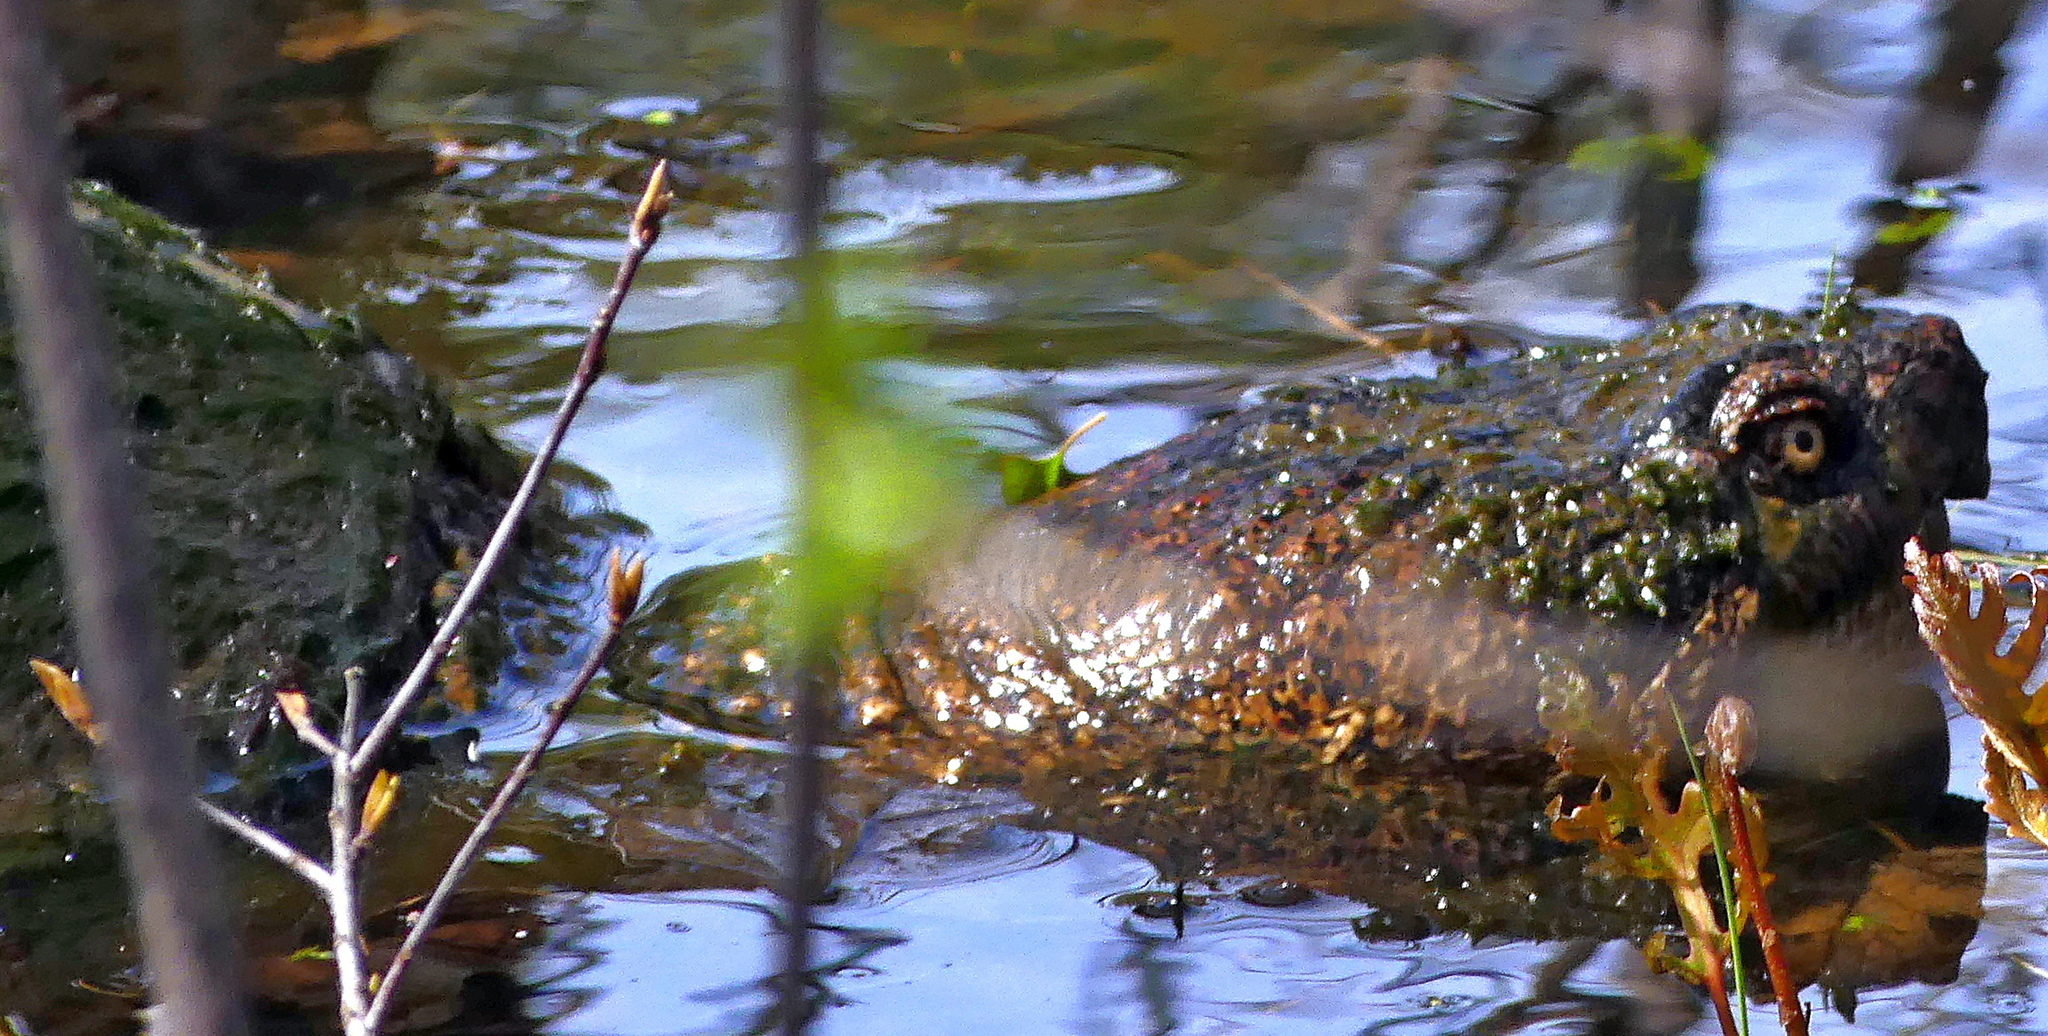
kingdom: Animalia
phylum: Chordata
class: Testudines
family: Chelydridae
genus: Chelydra
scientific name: Chelydra serpentina
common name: Common snapping turtle
